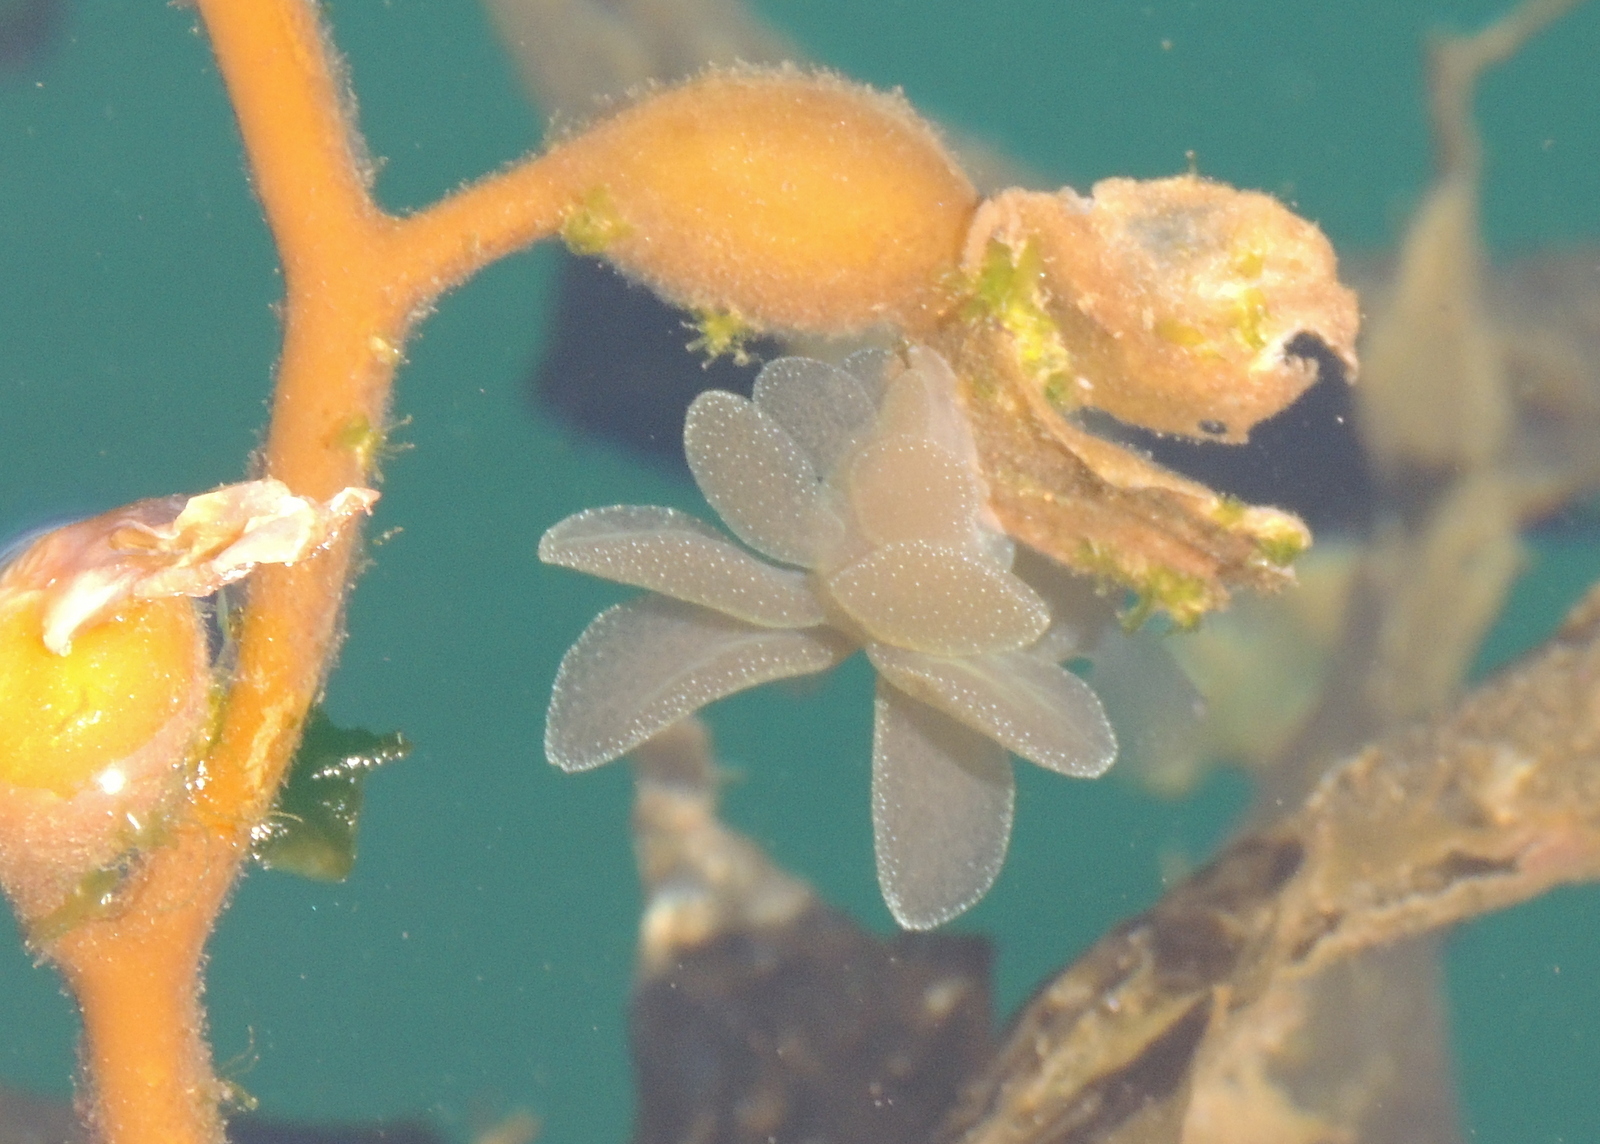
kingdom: Animalia
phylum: Mollusca
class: Gastropoda
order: Nudibranchia
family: Tethydidae
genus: Melibe
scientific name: Melibe leonina
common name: Lion nudibranch
